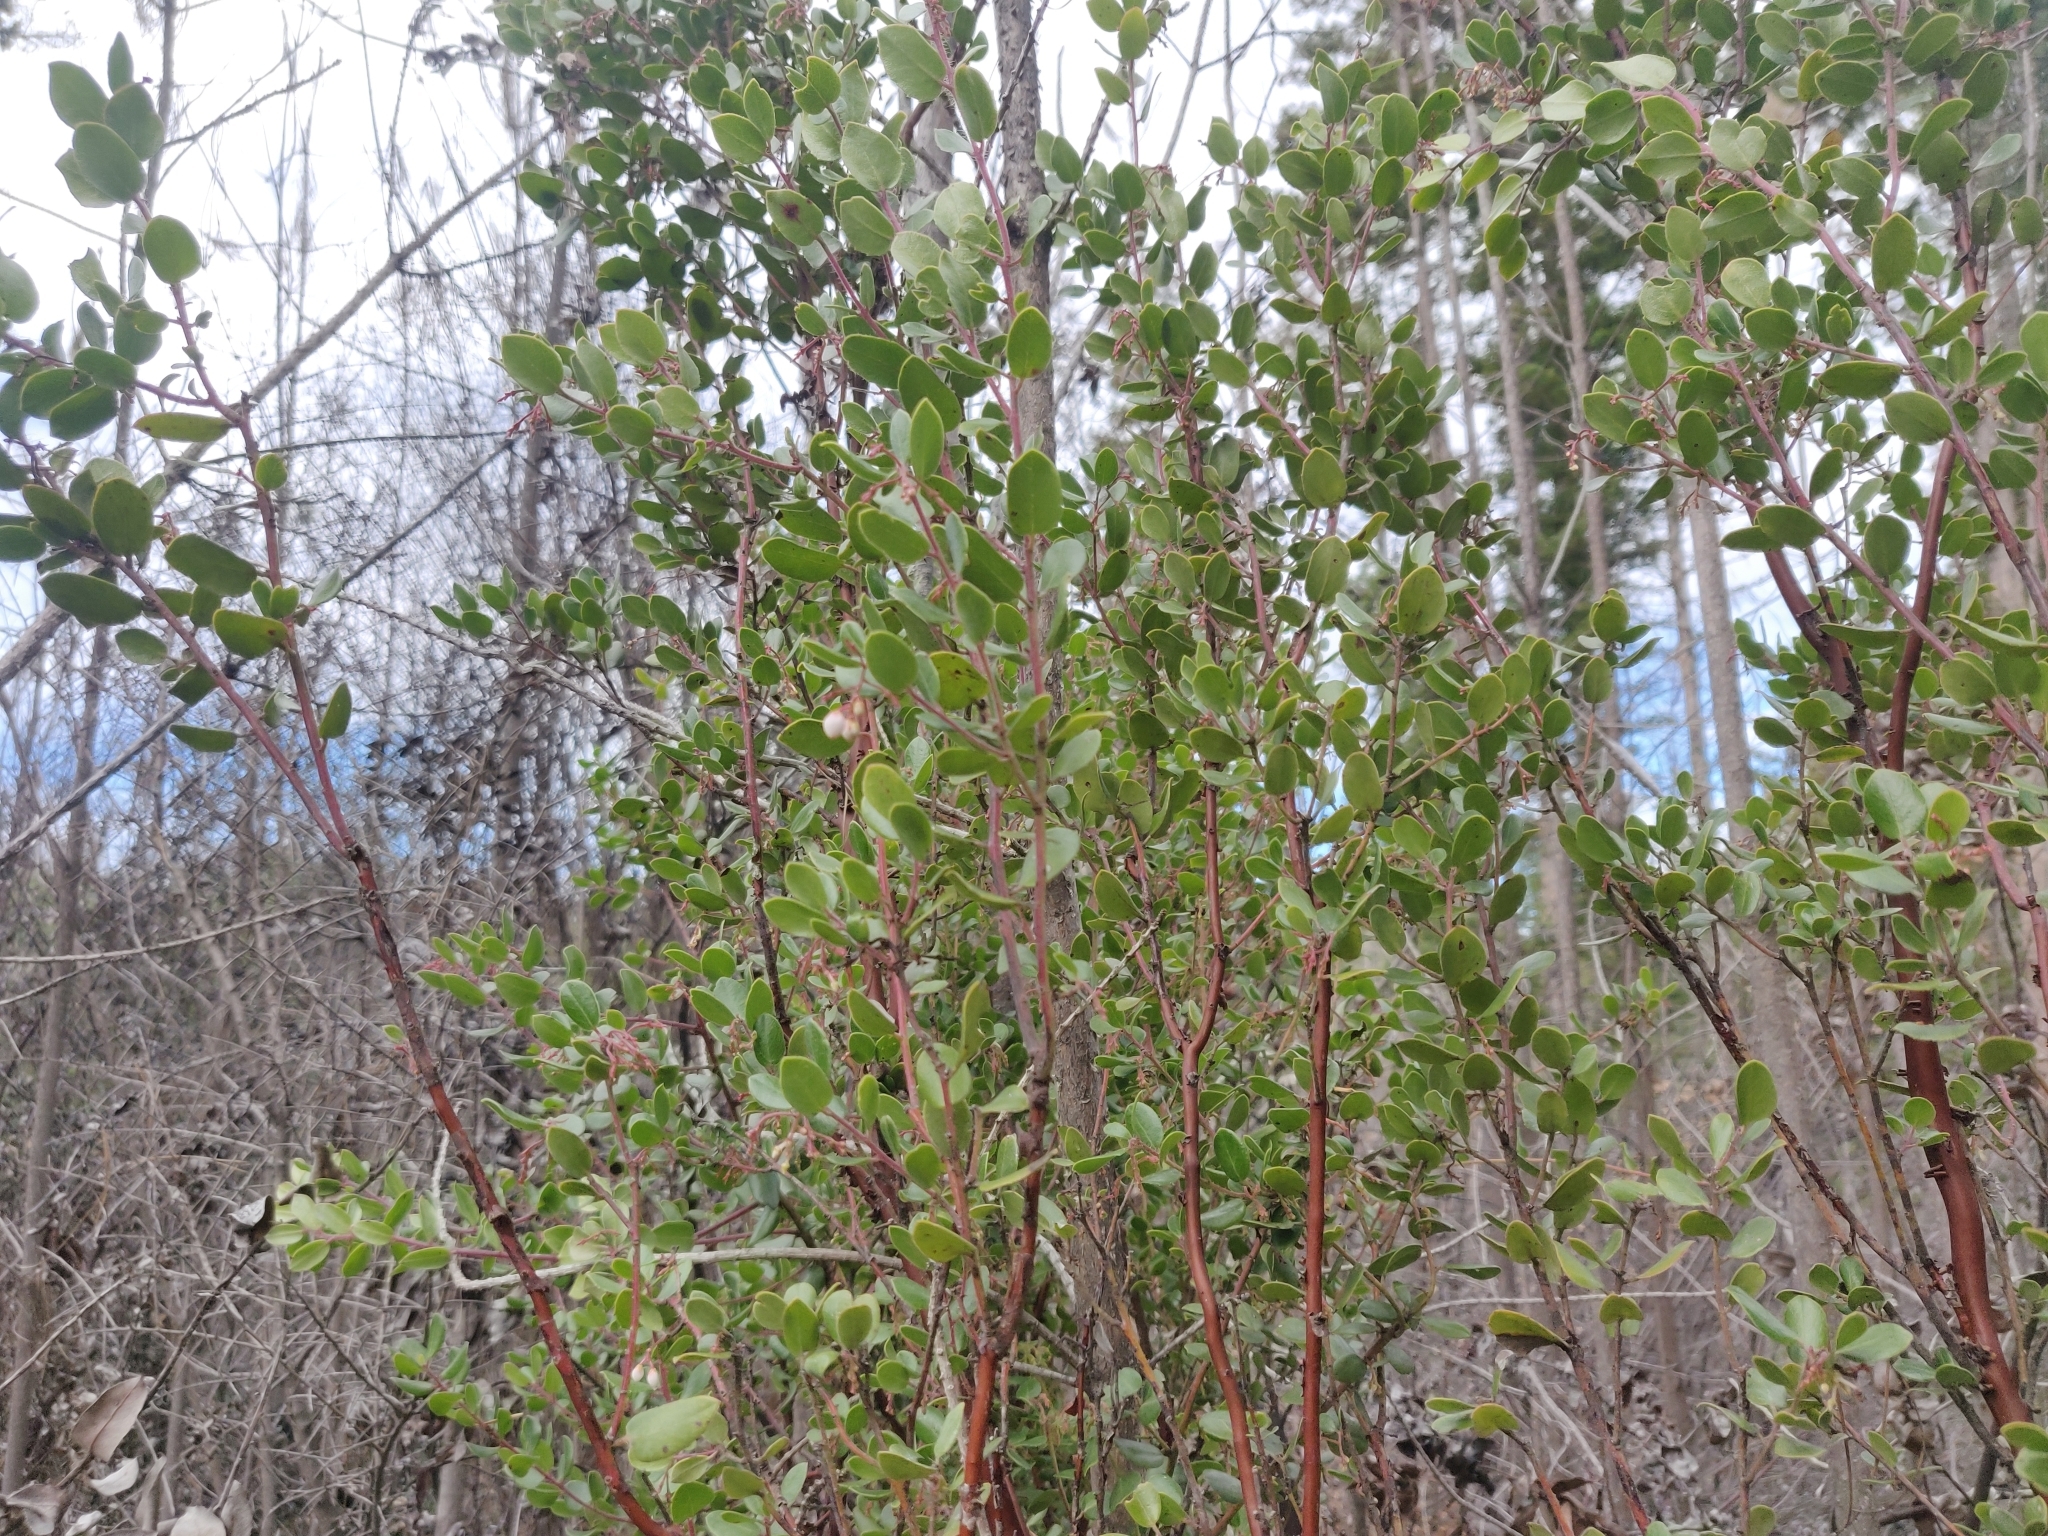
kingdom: Plantae
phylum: Tracheophyta
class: Magnoliopsida
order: Ericales
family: Ericaceae
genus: Arctostaphylos
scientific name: Arctostaphylos nummularia
